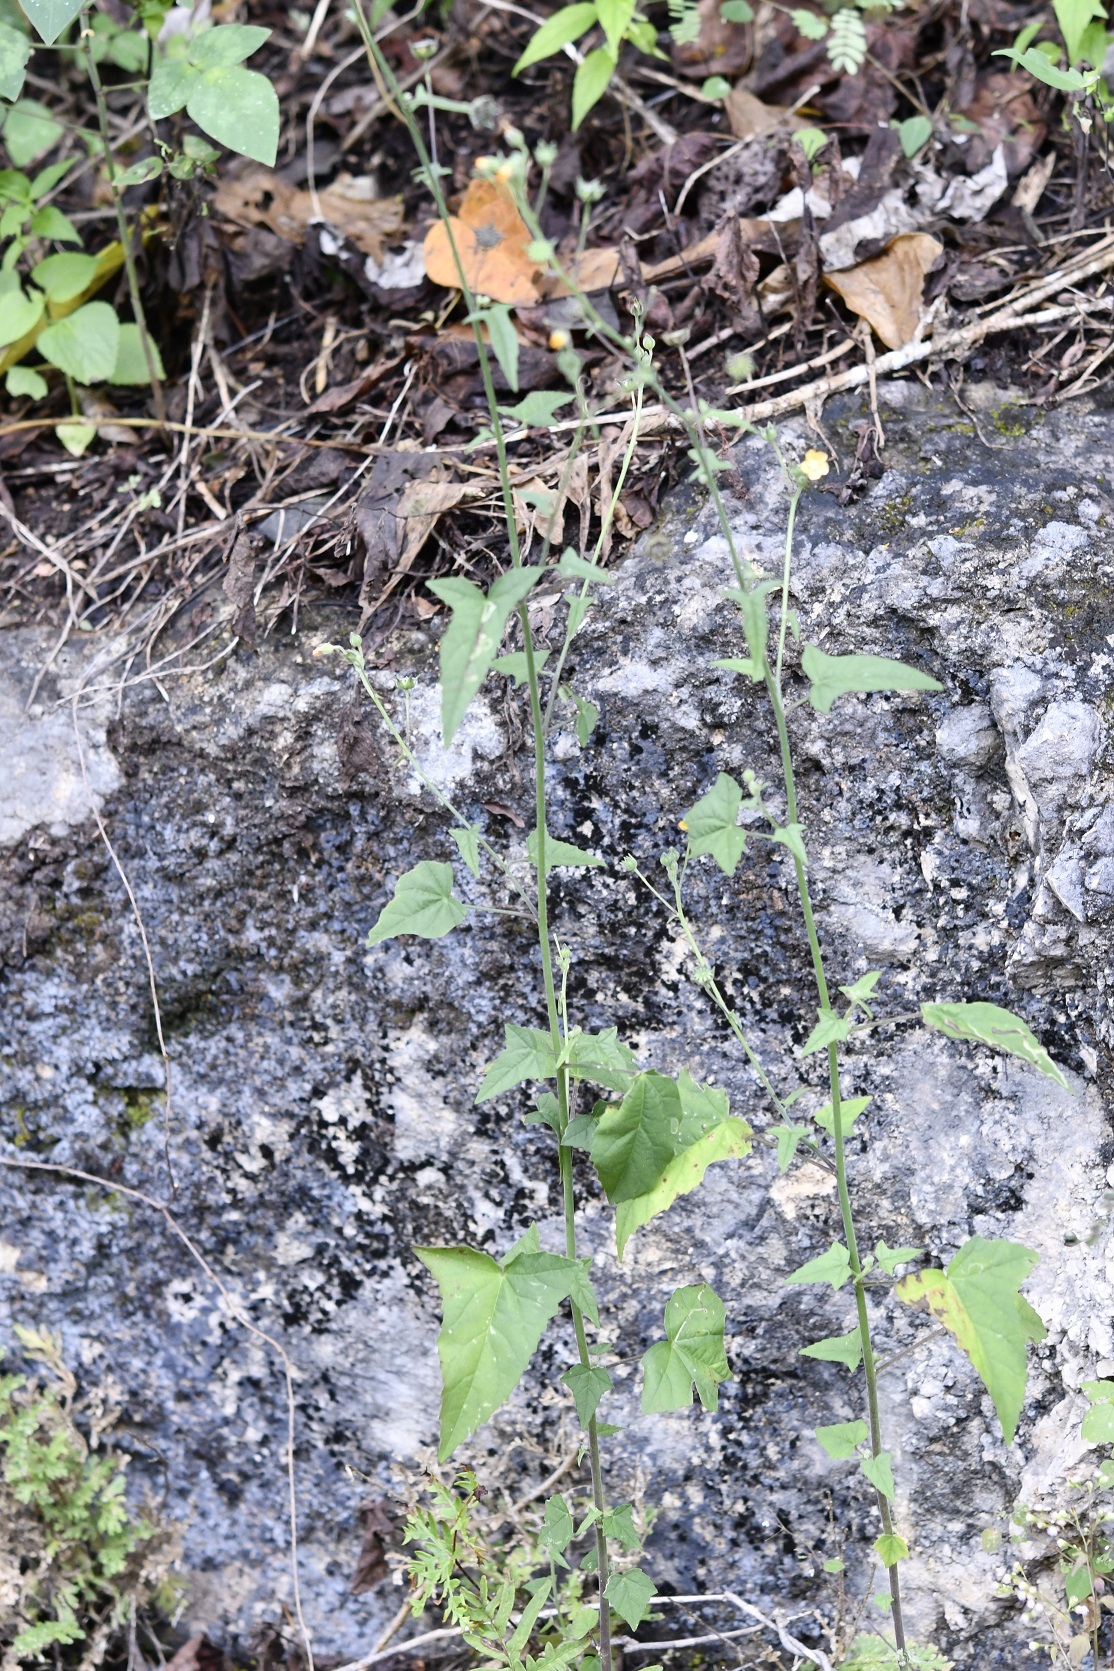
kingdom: Plantae
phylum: Tracheophyta
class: Magnoliopsida
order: Malvales
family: Malvaceae
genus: Anoda
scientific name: Anoda crenatiflora
